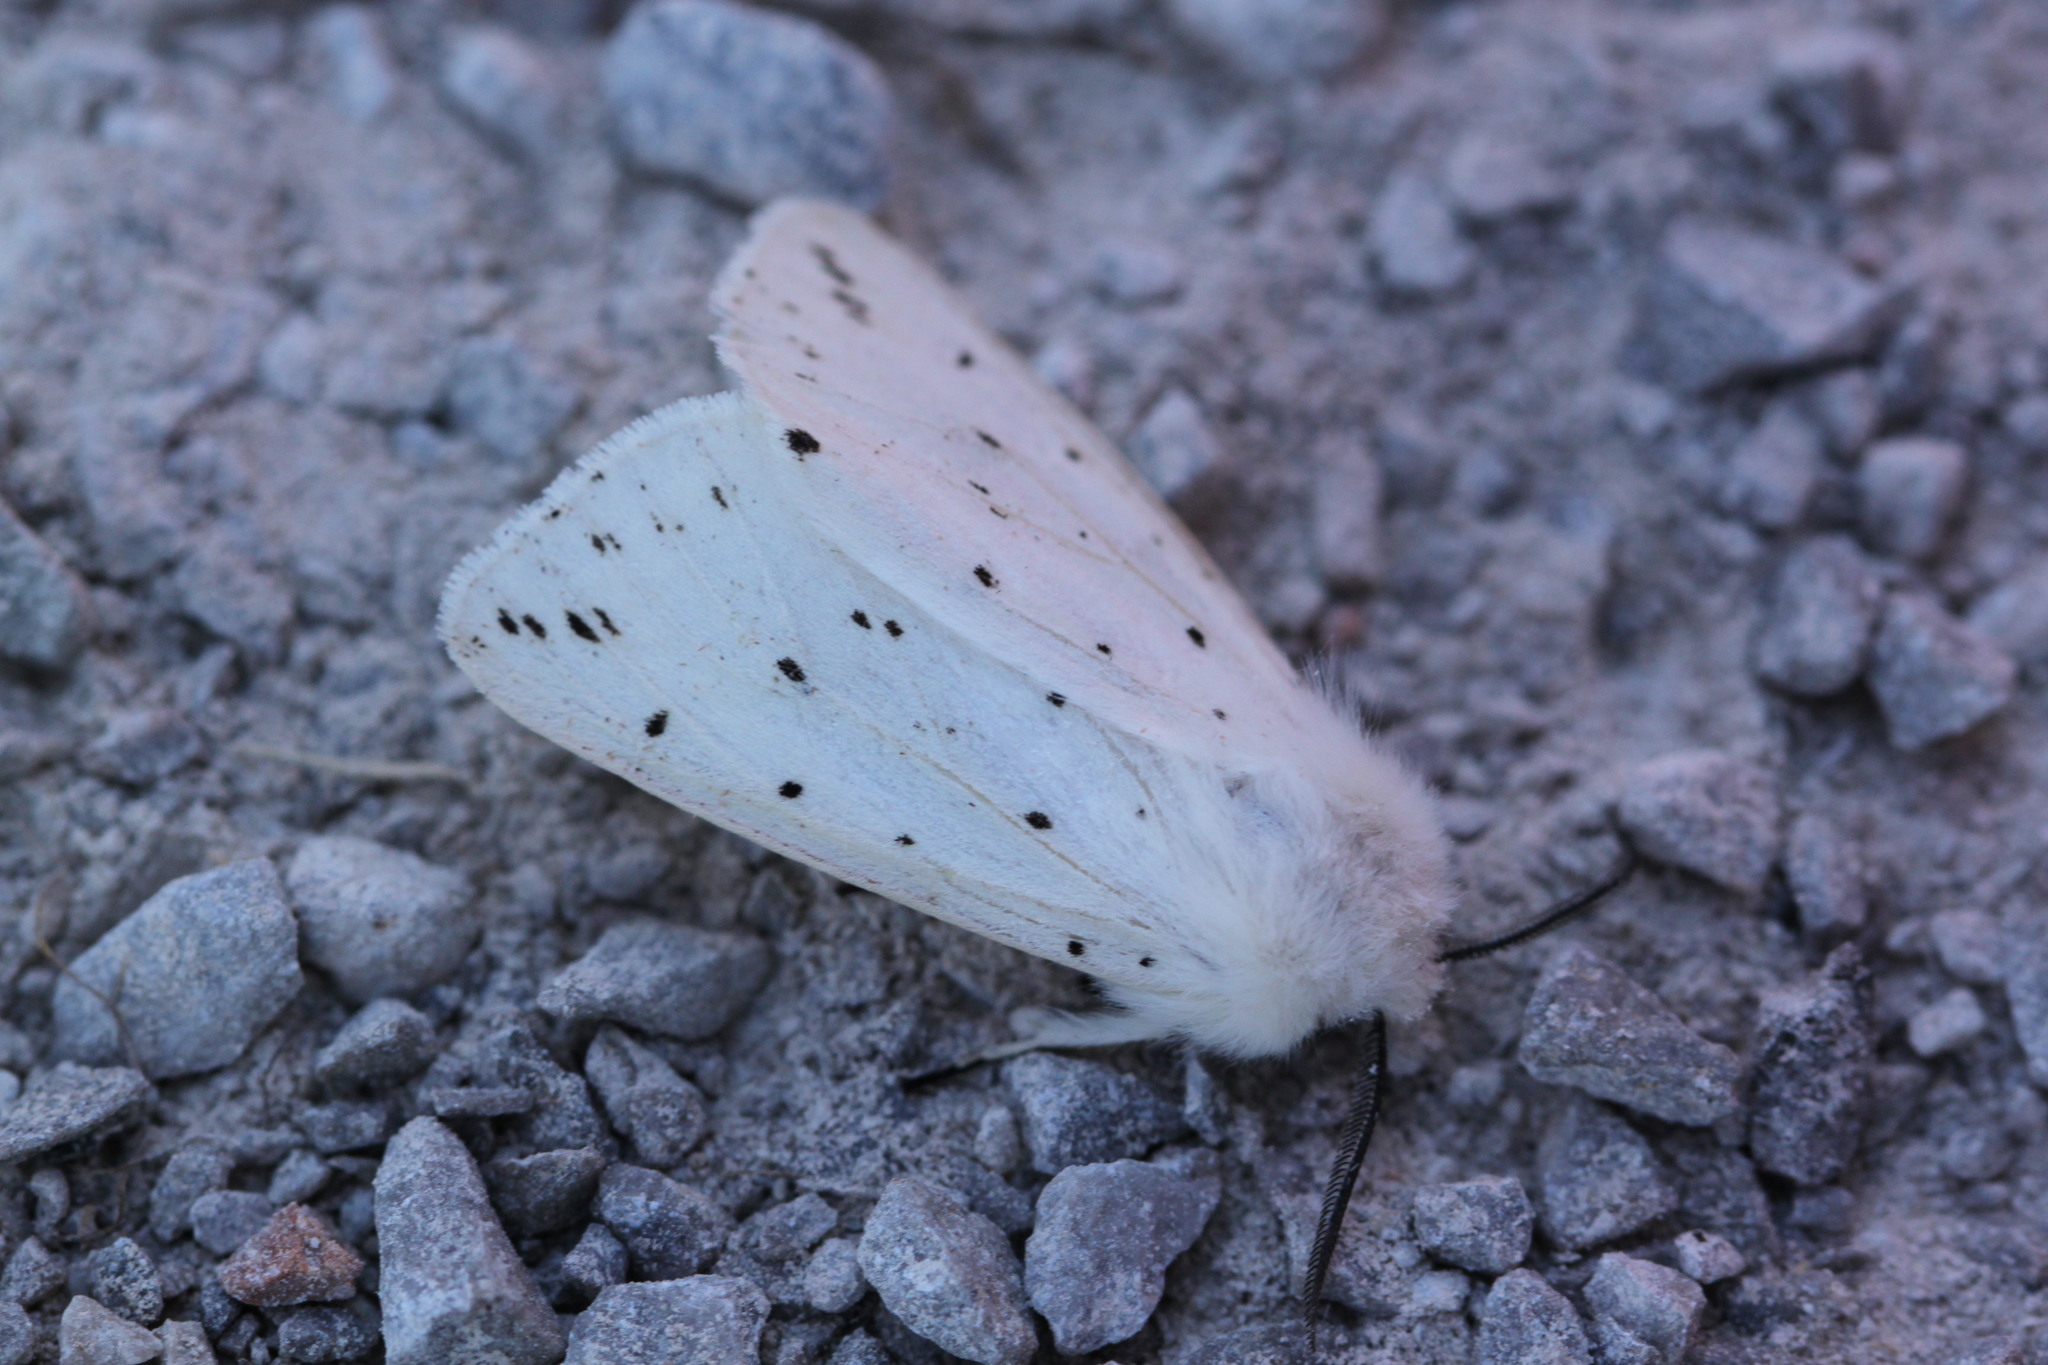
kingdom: Animalia
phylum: Arthropoda
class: Insecta
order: Lepidoptera
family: Erebidae
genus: Spilosoma
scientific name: Spilosoma lubricipeda
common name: White ermine
